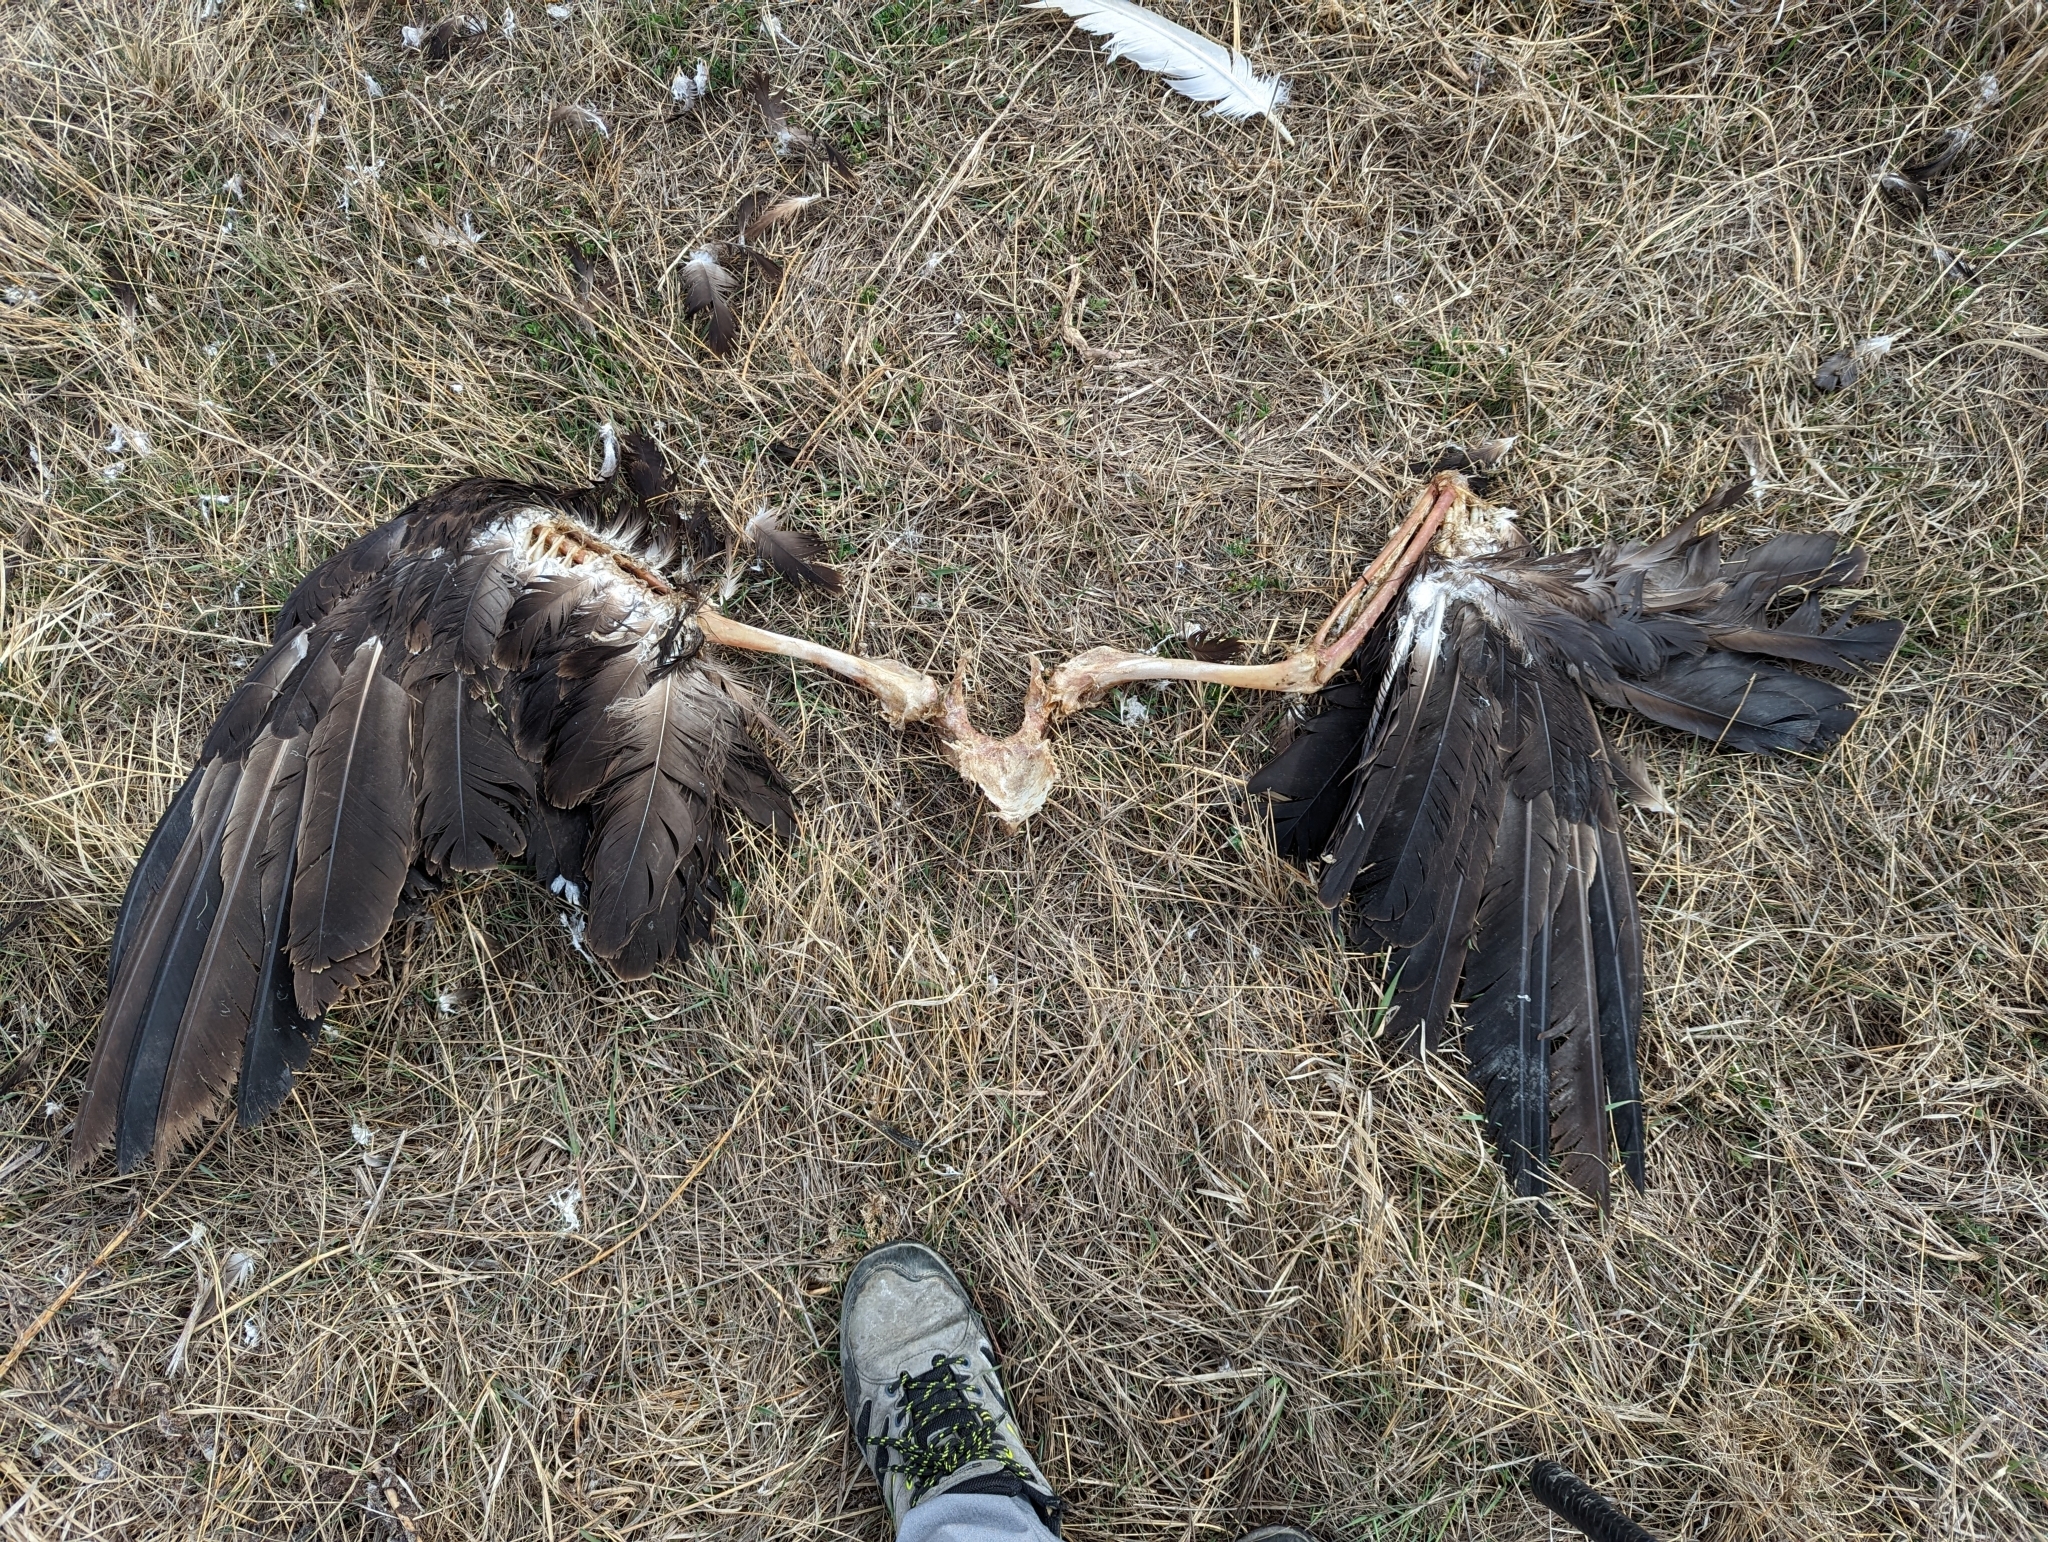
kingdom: Animalia
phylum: Chordata
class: Aves
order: Accipitriformes
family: Accipitridae
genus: Haliaeetus
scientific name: Haliaeetus leucocephalus
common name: Bald eagle
